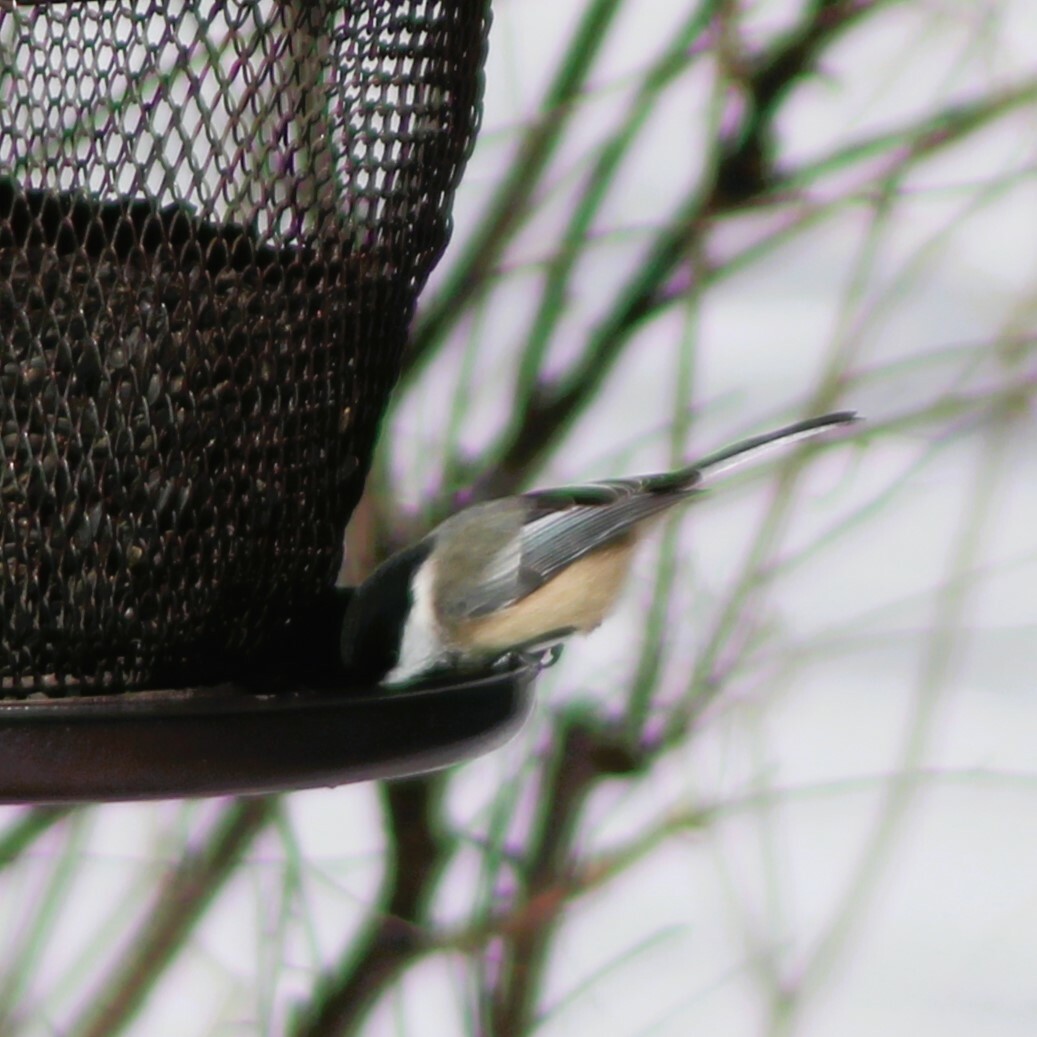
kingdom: Animalia
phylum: Chordata
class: Aves
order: Passeriformes
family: Paridae
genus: Poecile
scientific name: Poecile atricapillus
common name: Black-capped chickadee
